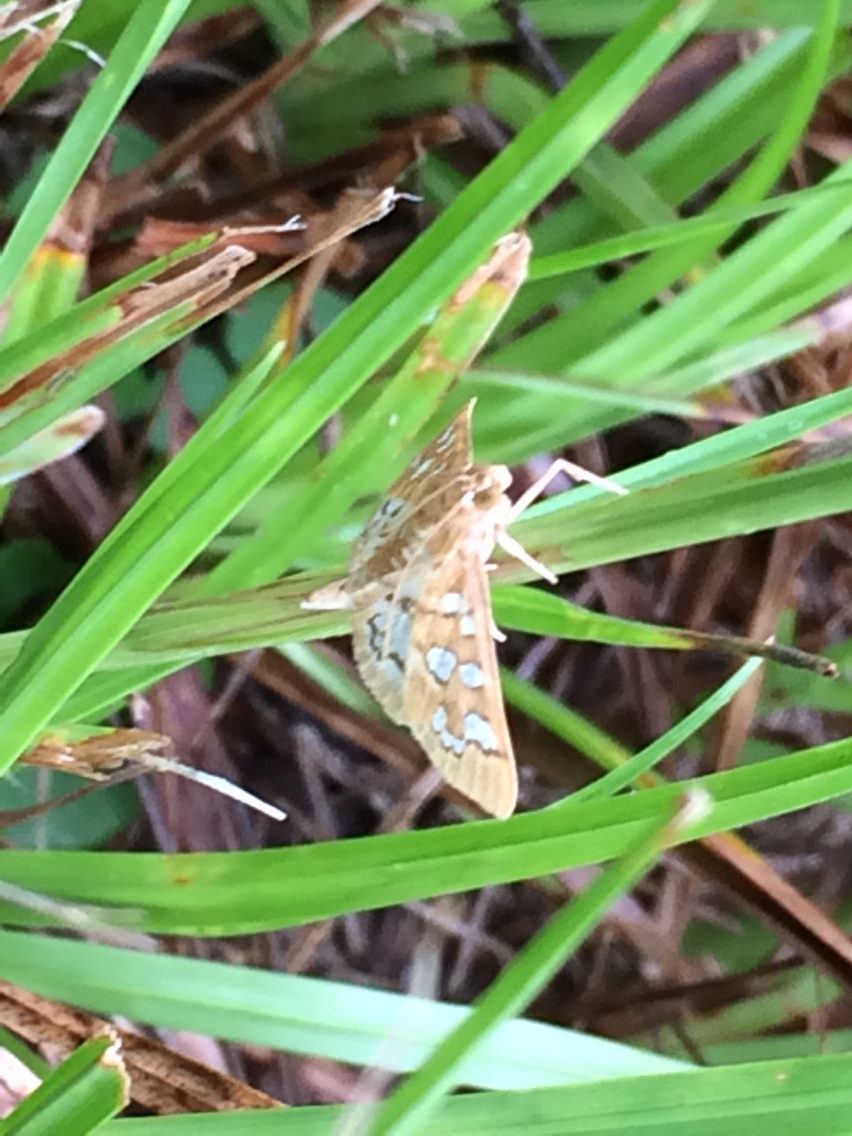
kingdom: Animalia
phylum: Arthropoda
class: Insecta
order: Lepidoptera
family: Crambidae
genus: Samea
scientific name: Samea baccatalis
